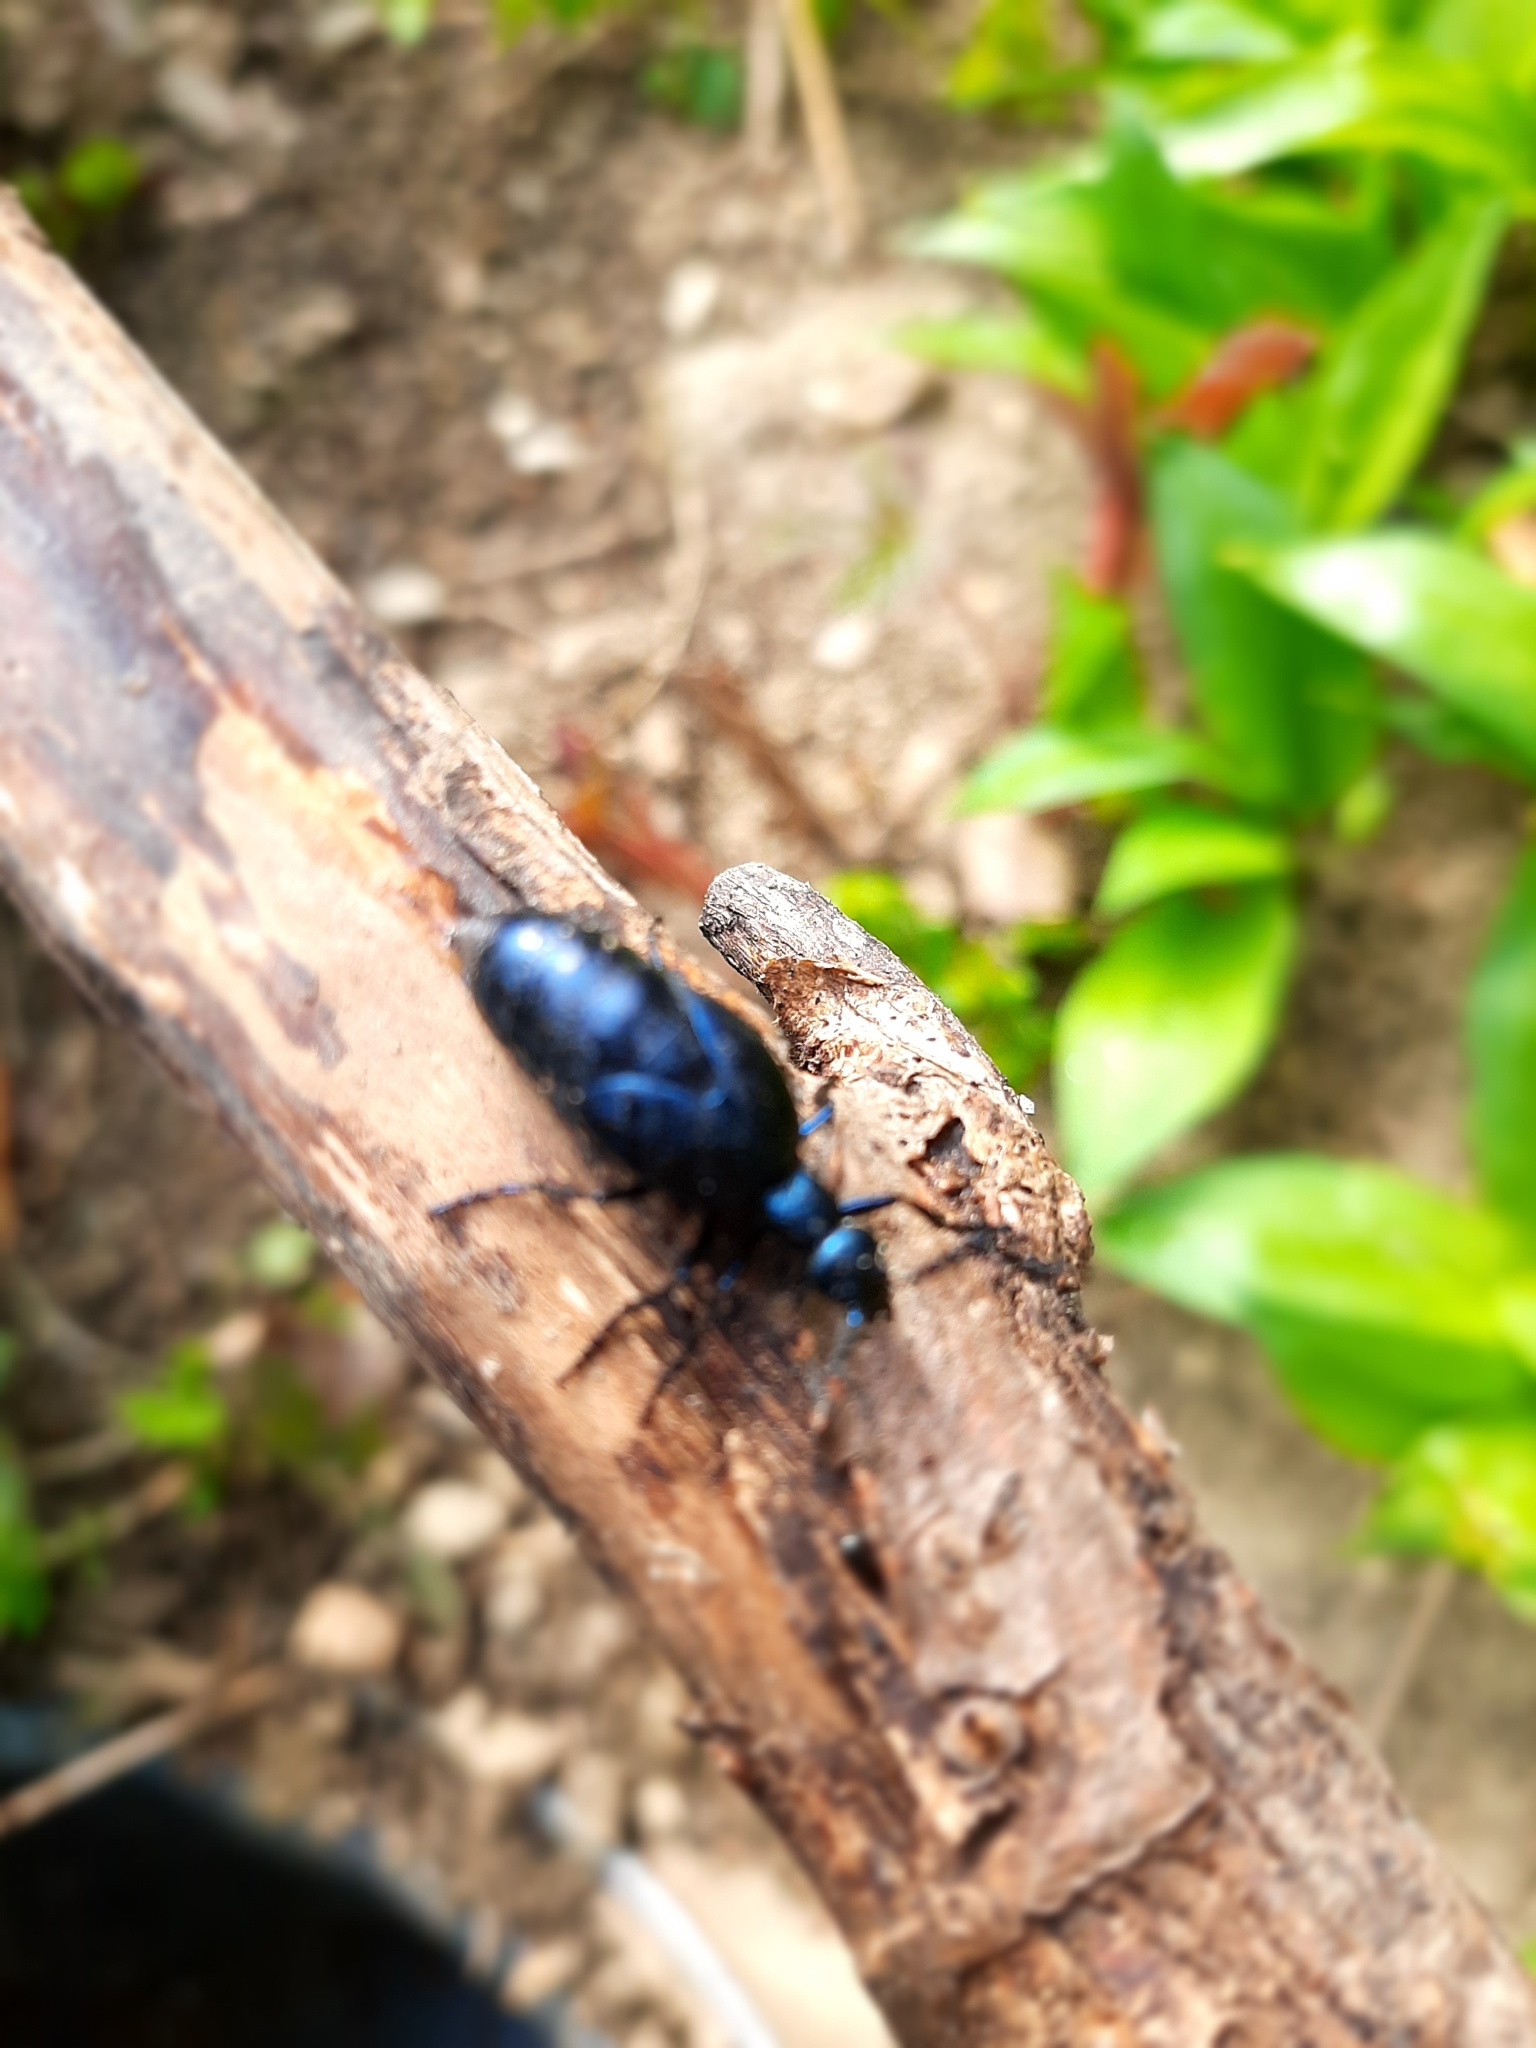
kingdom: Animalia
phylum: Arthropoda
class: Insecta
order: Coleoptera
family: Meloidae
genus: Meloe
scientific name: Meloe violaceus
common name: Violet oil-beetle
